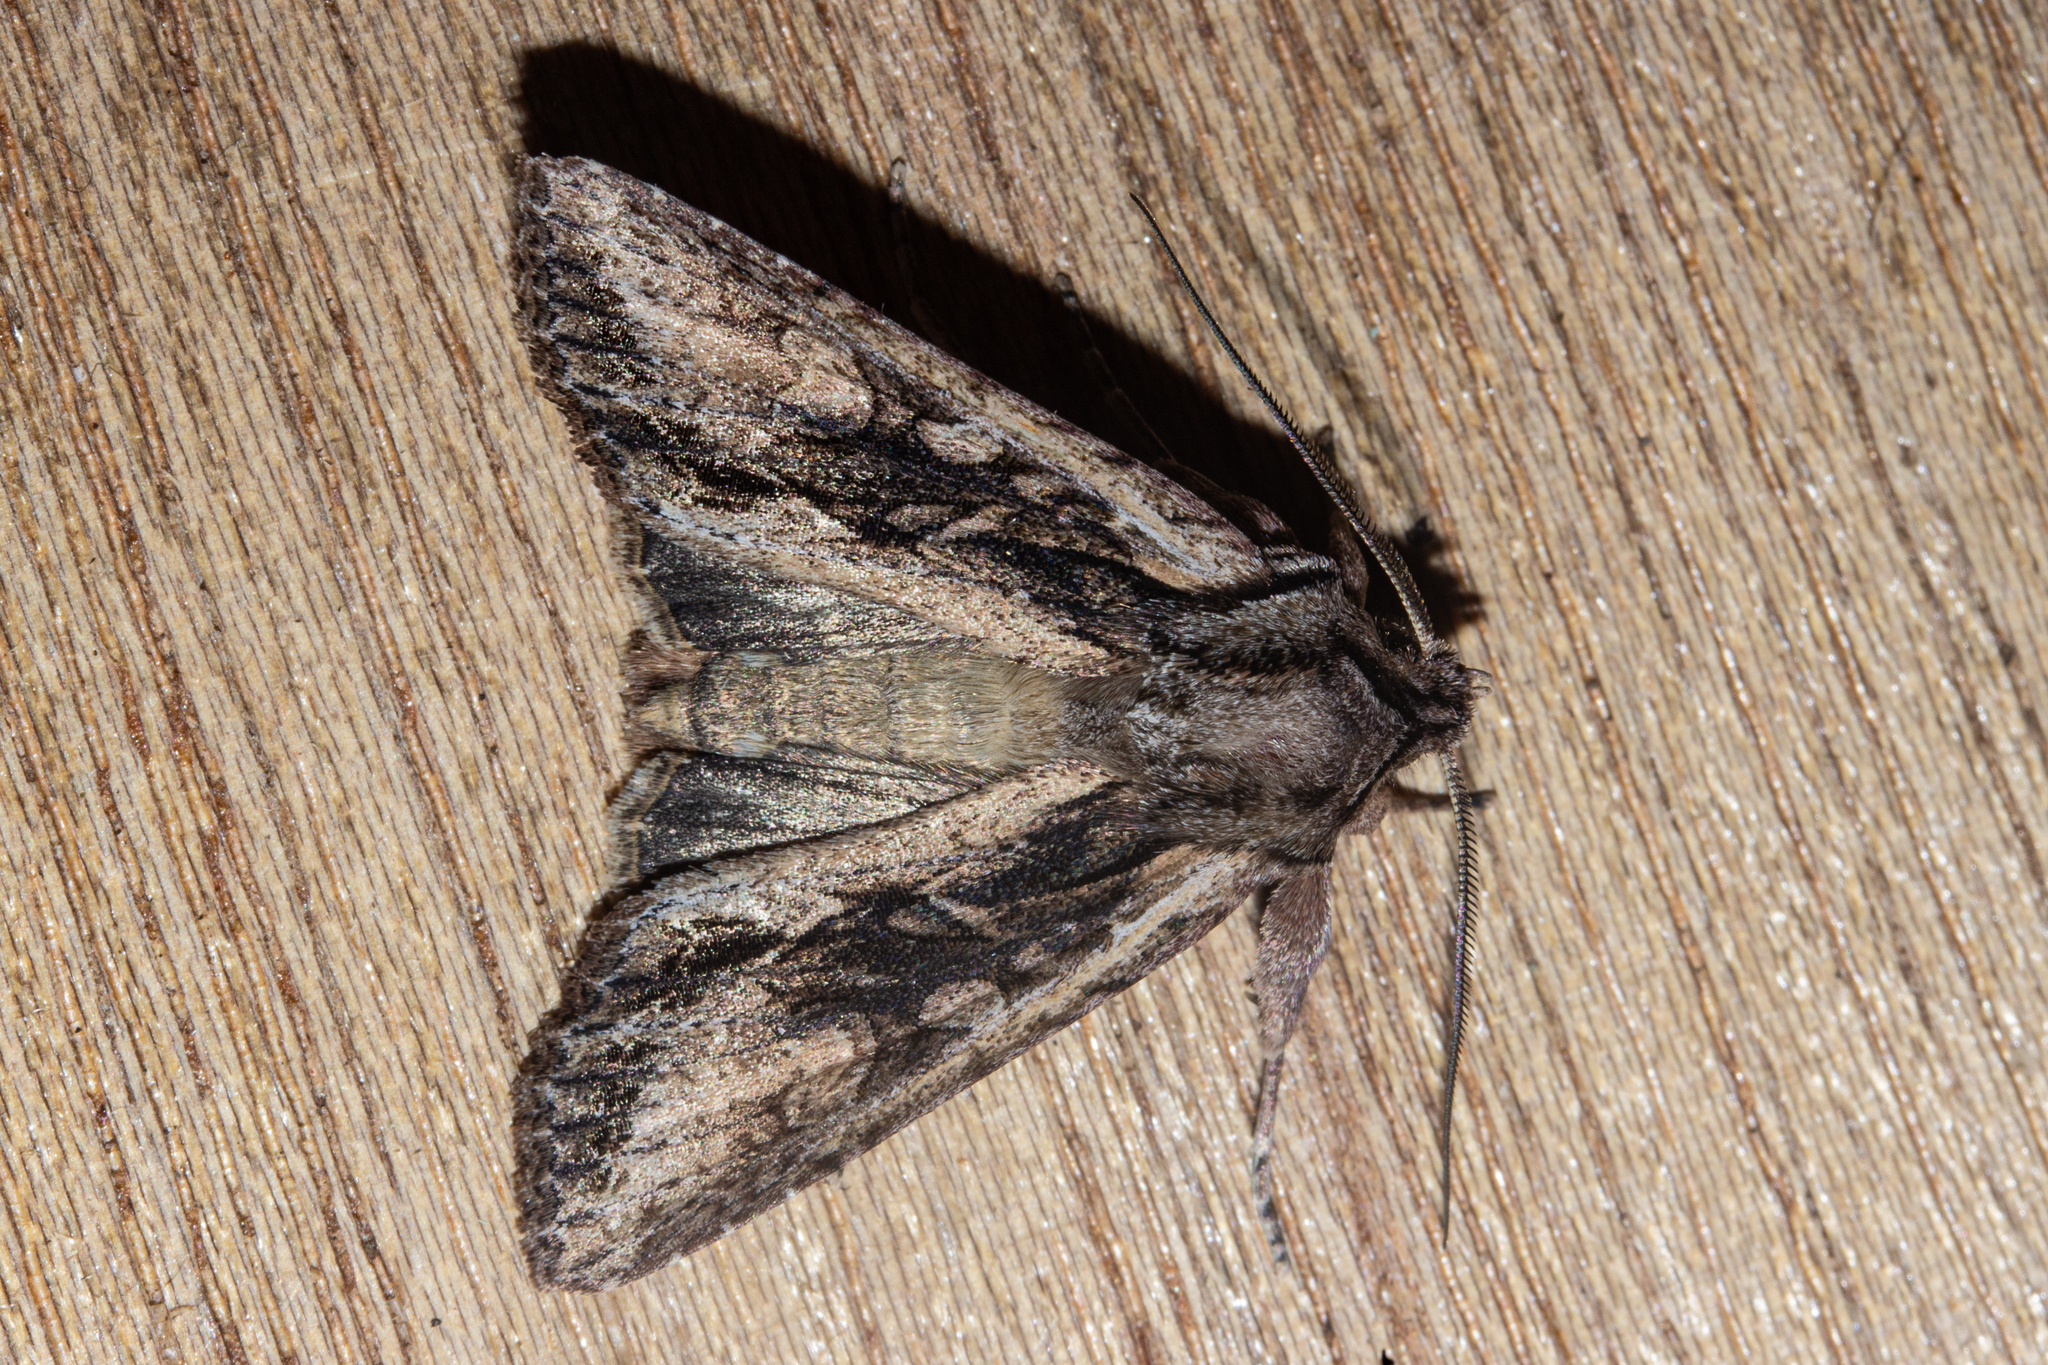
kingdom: Animalia
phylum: Arthropoda
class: Insecta
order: Lepidoptera
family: Noctuidae
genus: Ichneutica
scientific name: Ichneutica mutans
